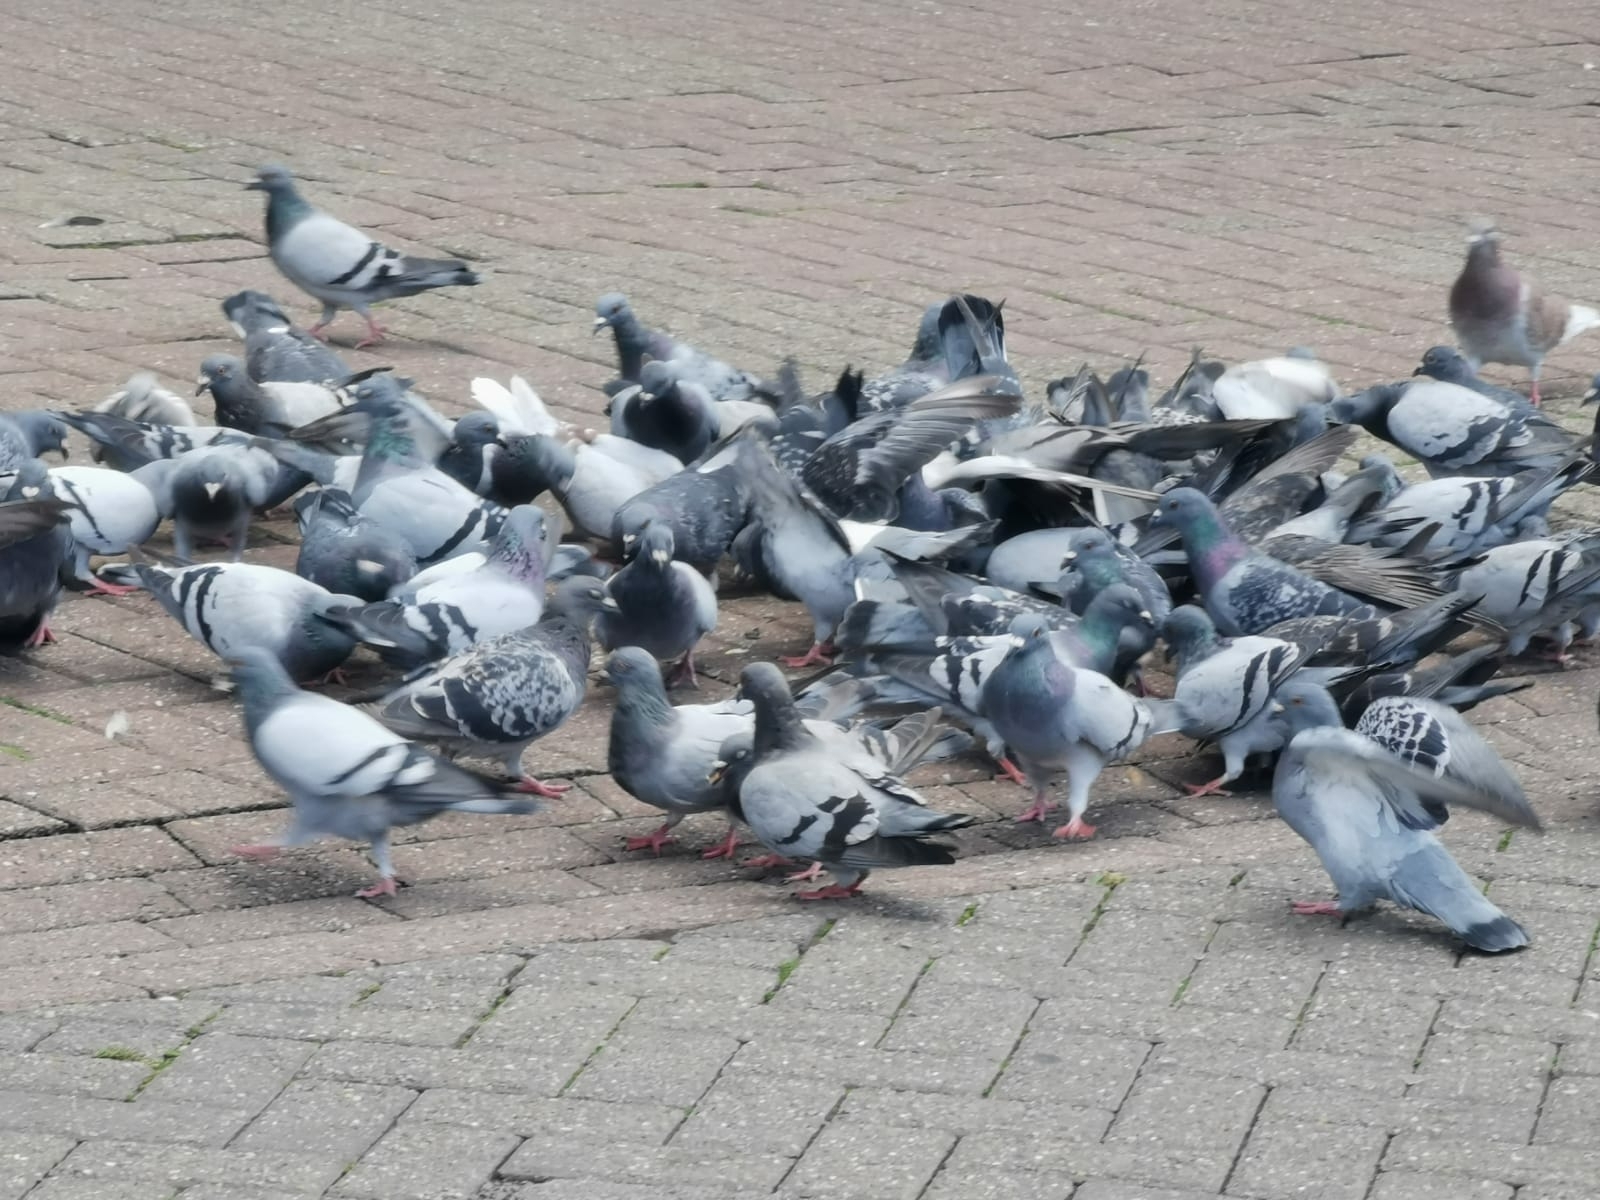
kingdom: Animalia
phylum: Chordata
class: Aves
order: Columbiformes
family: Columbidae
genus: Columba
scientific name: Columba livia
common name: Rock pigeon
